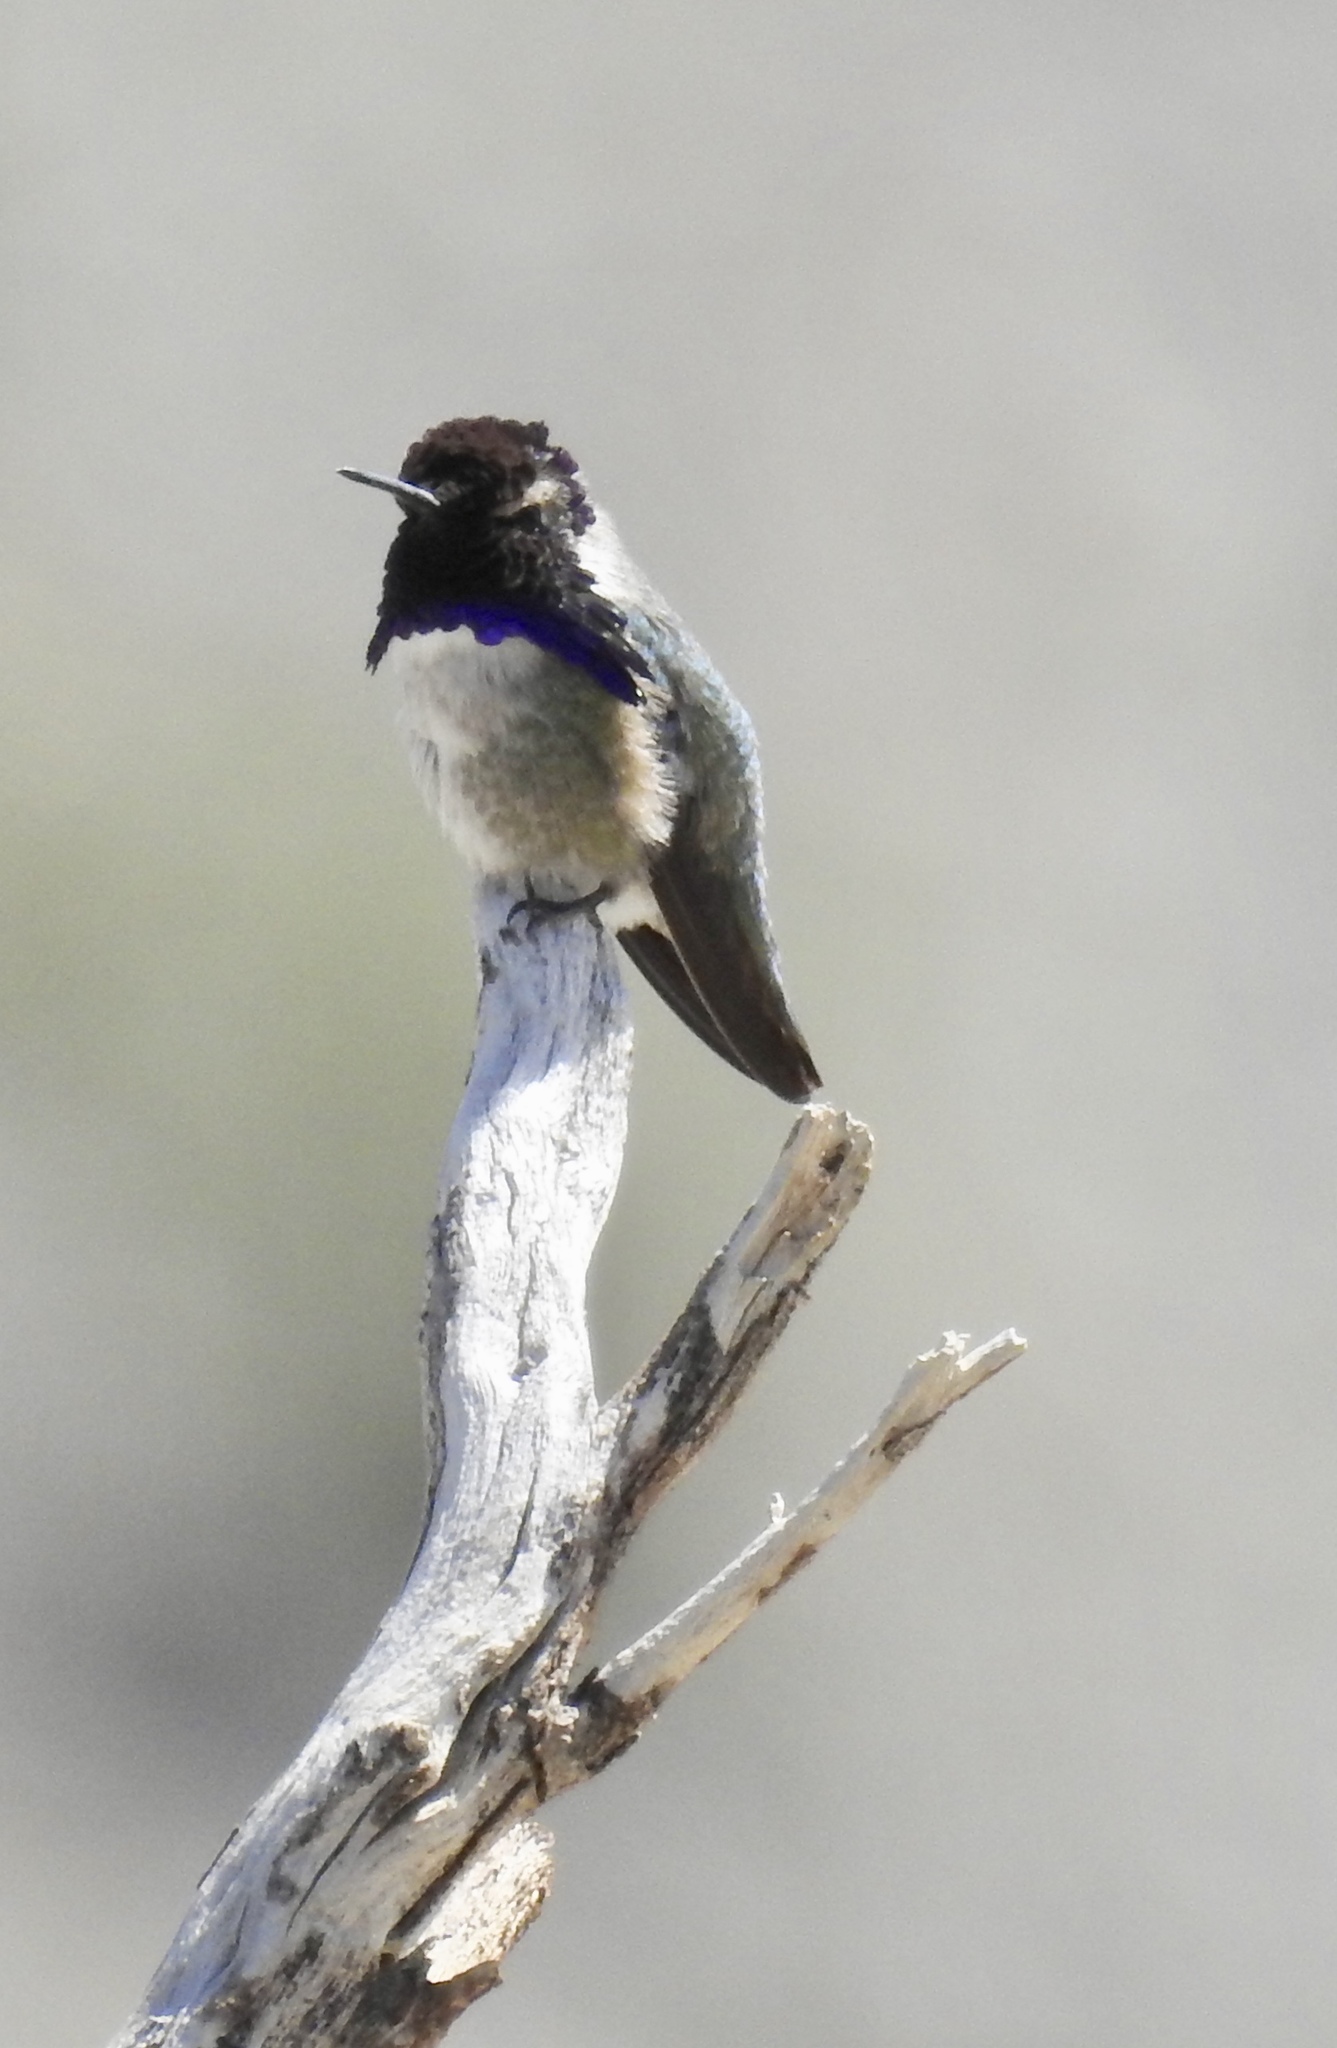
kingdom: Animalia
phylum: Chordata
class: Aves
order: Apodiformes
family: Trochilidae
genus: Calypte
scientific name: Calypte costae
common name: Costa's hummingbird
